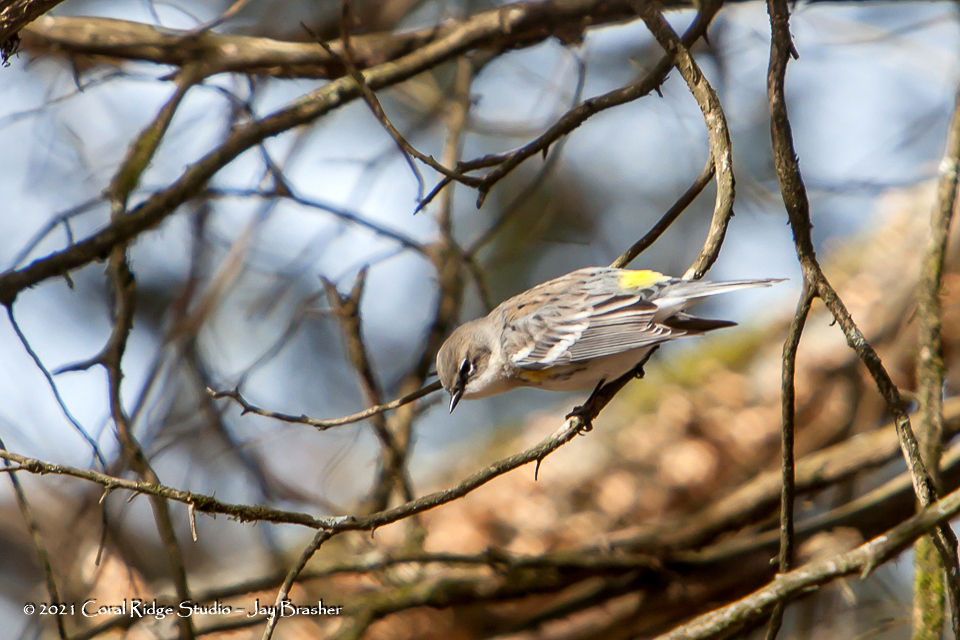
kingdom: Animalia
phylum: Chordata
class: Aves
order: Passeriformes
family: Parulidae
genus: Setophaga
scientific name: Setophaga coronata
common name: Myrtle warbler
